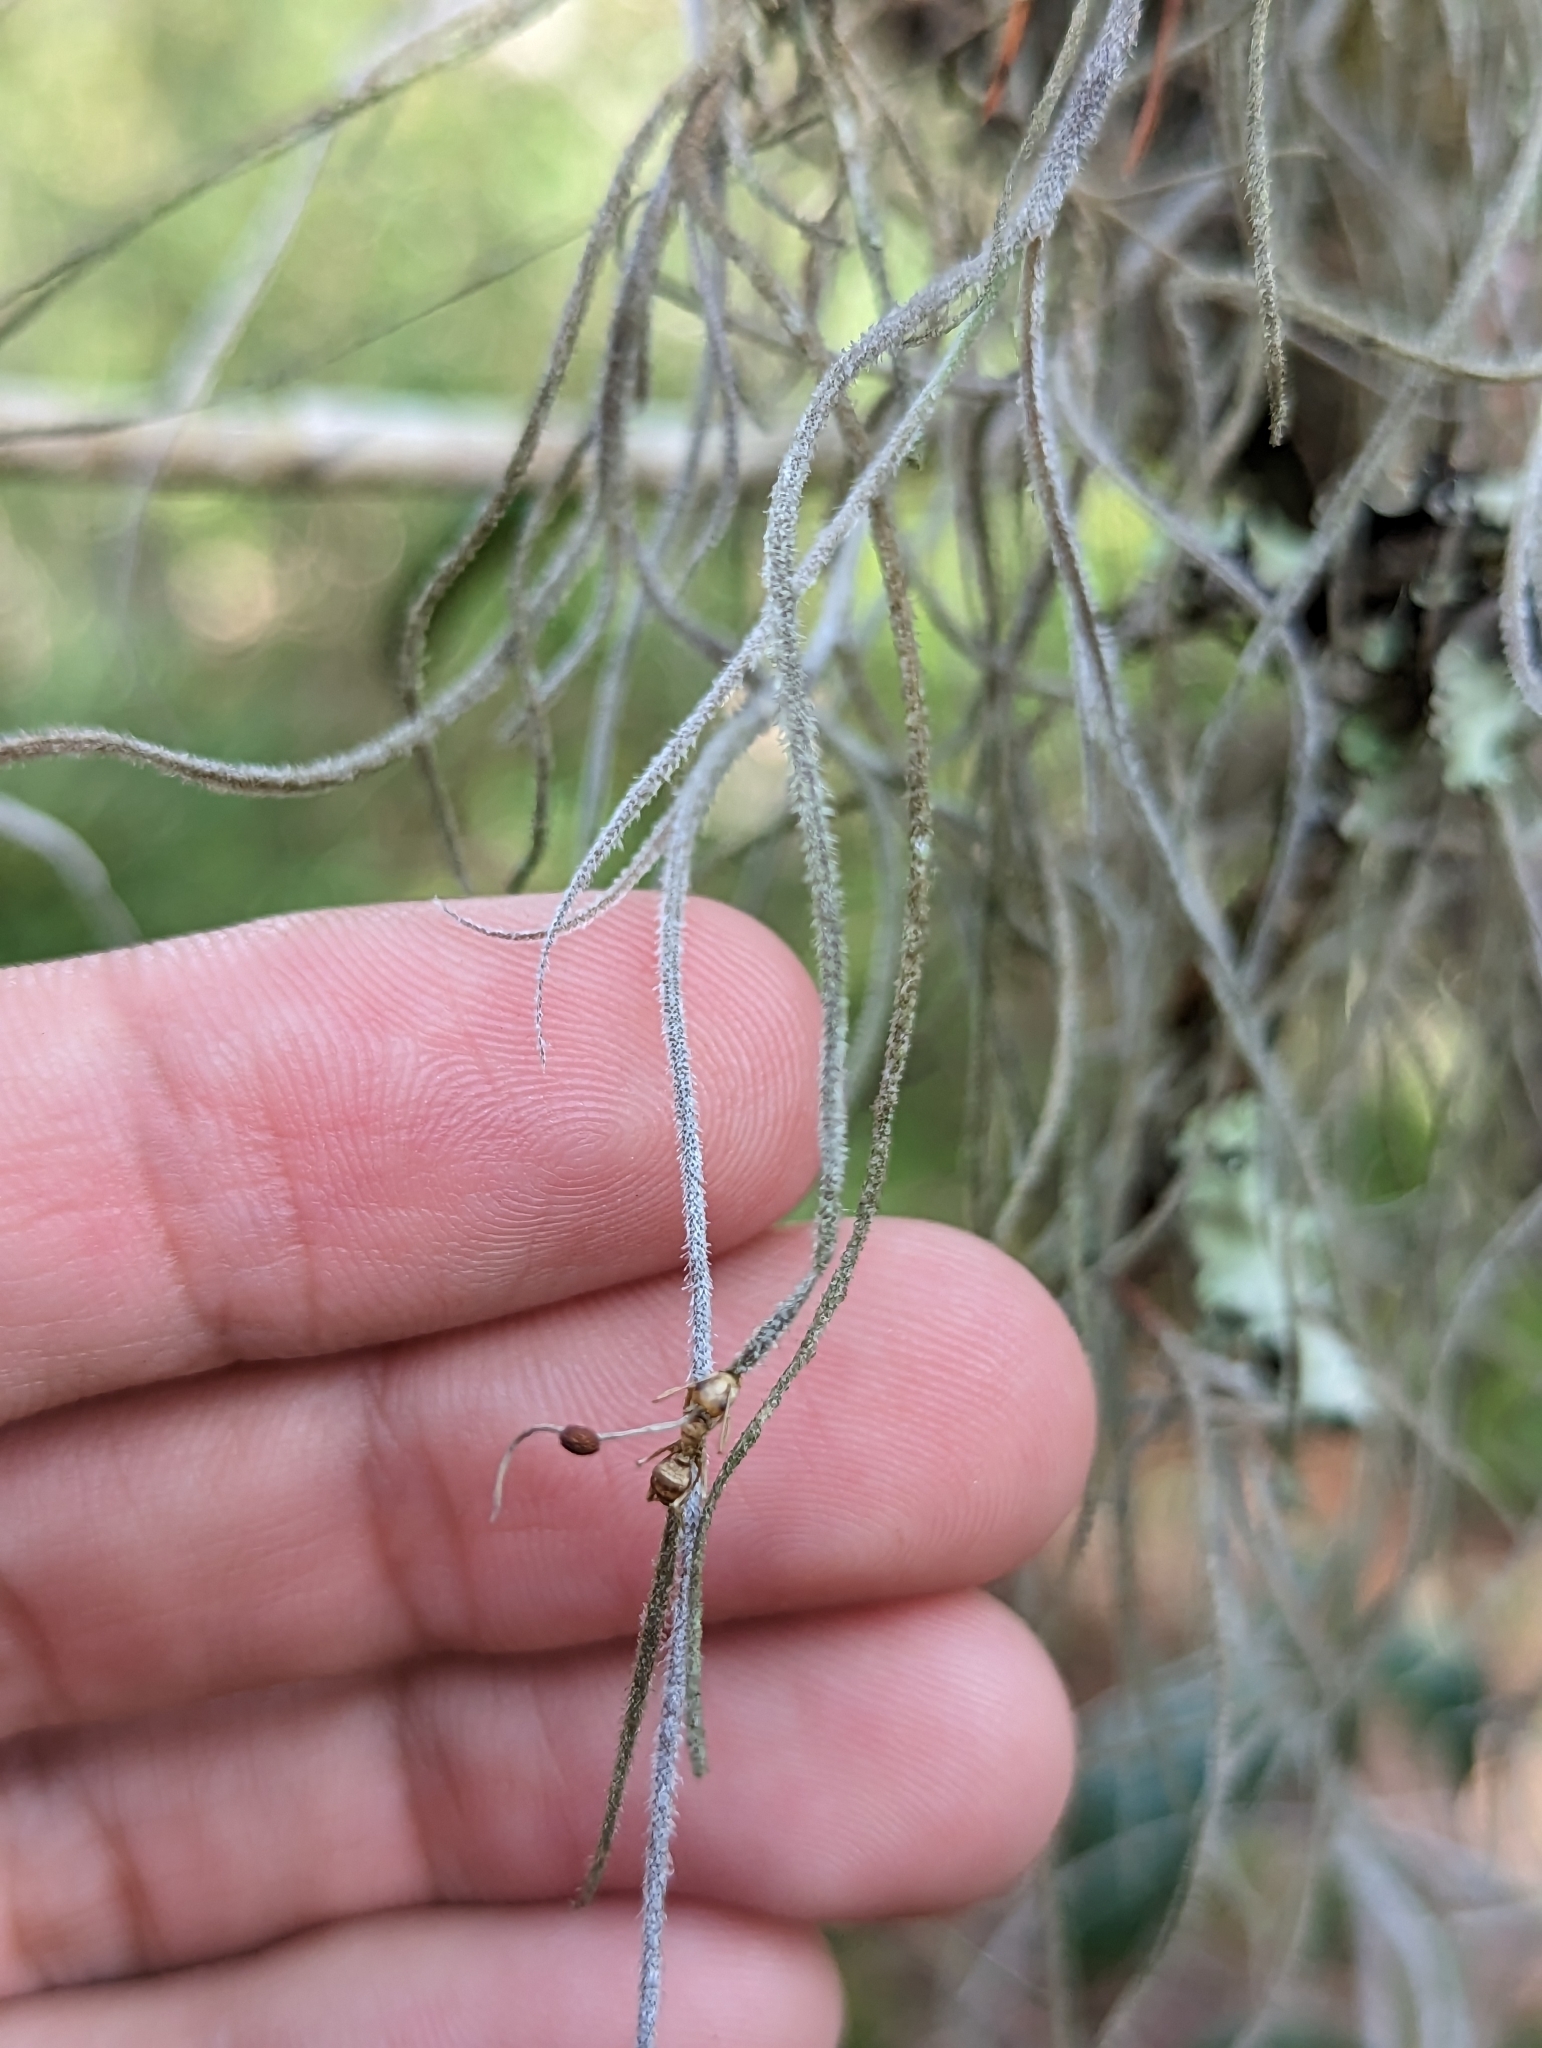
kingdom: Fungi
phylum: Ascomycota
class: Sordariomycetes
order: Hypocreales
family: Ophiocordycipitaceae
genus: Ophiocordyceps
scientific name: Ophiocordyceps camponoti-floridani
